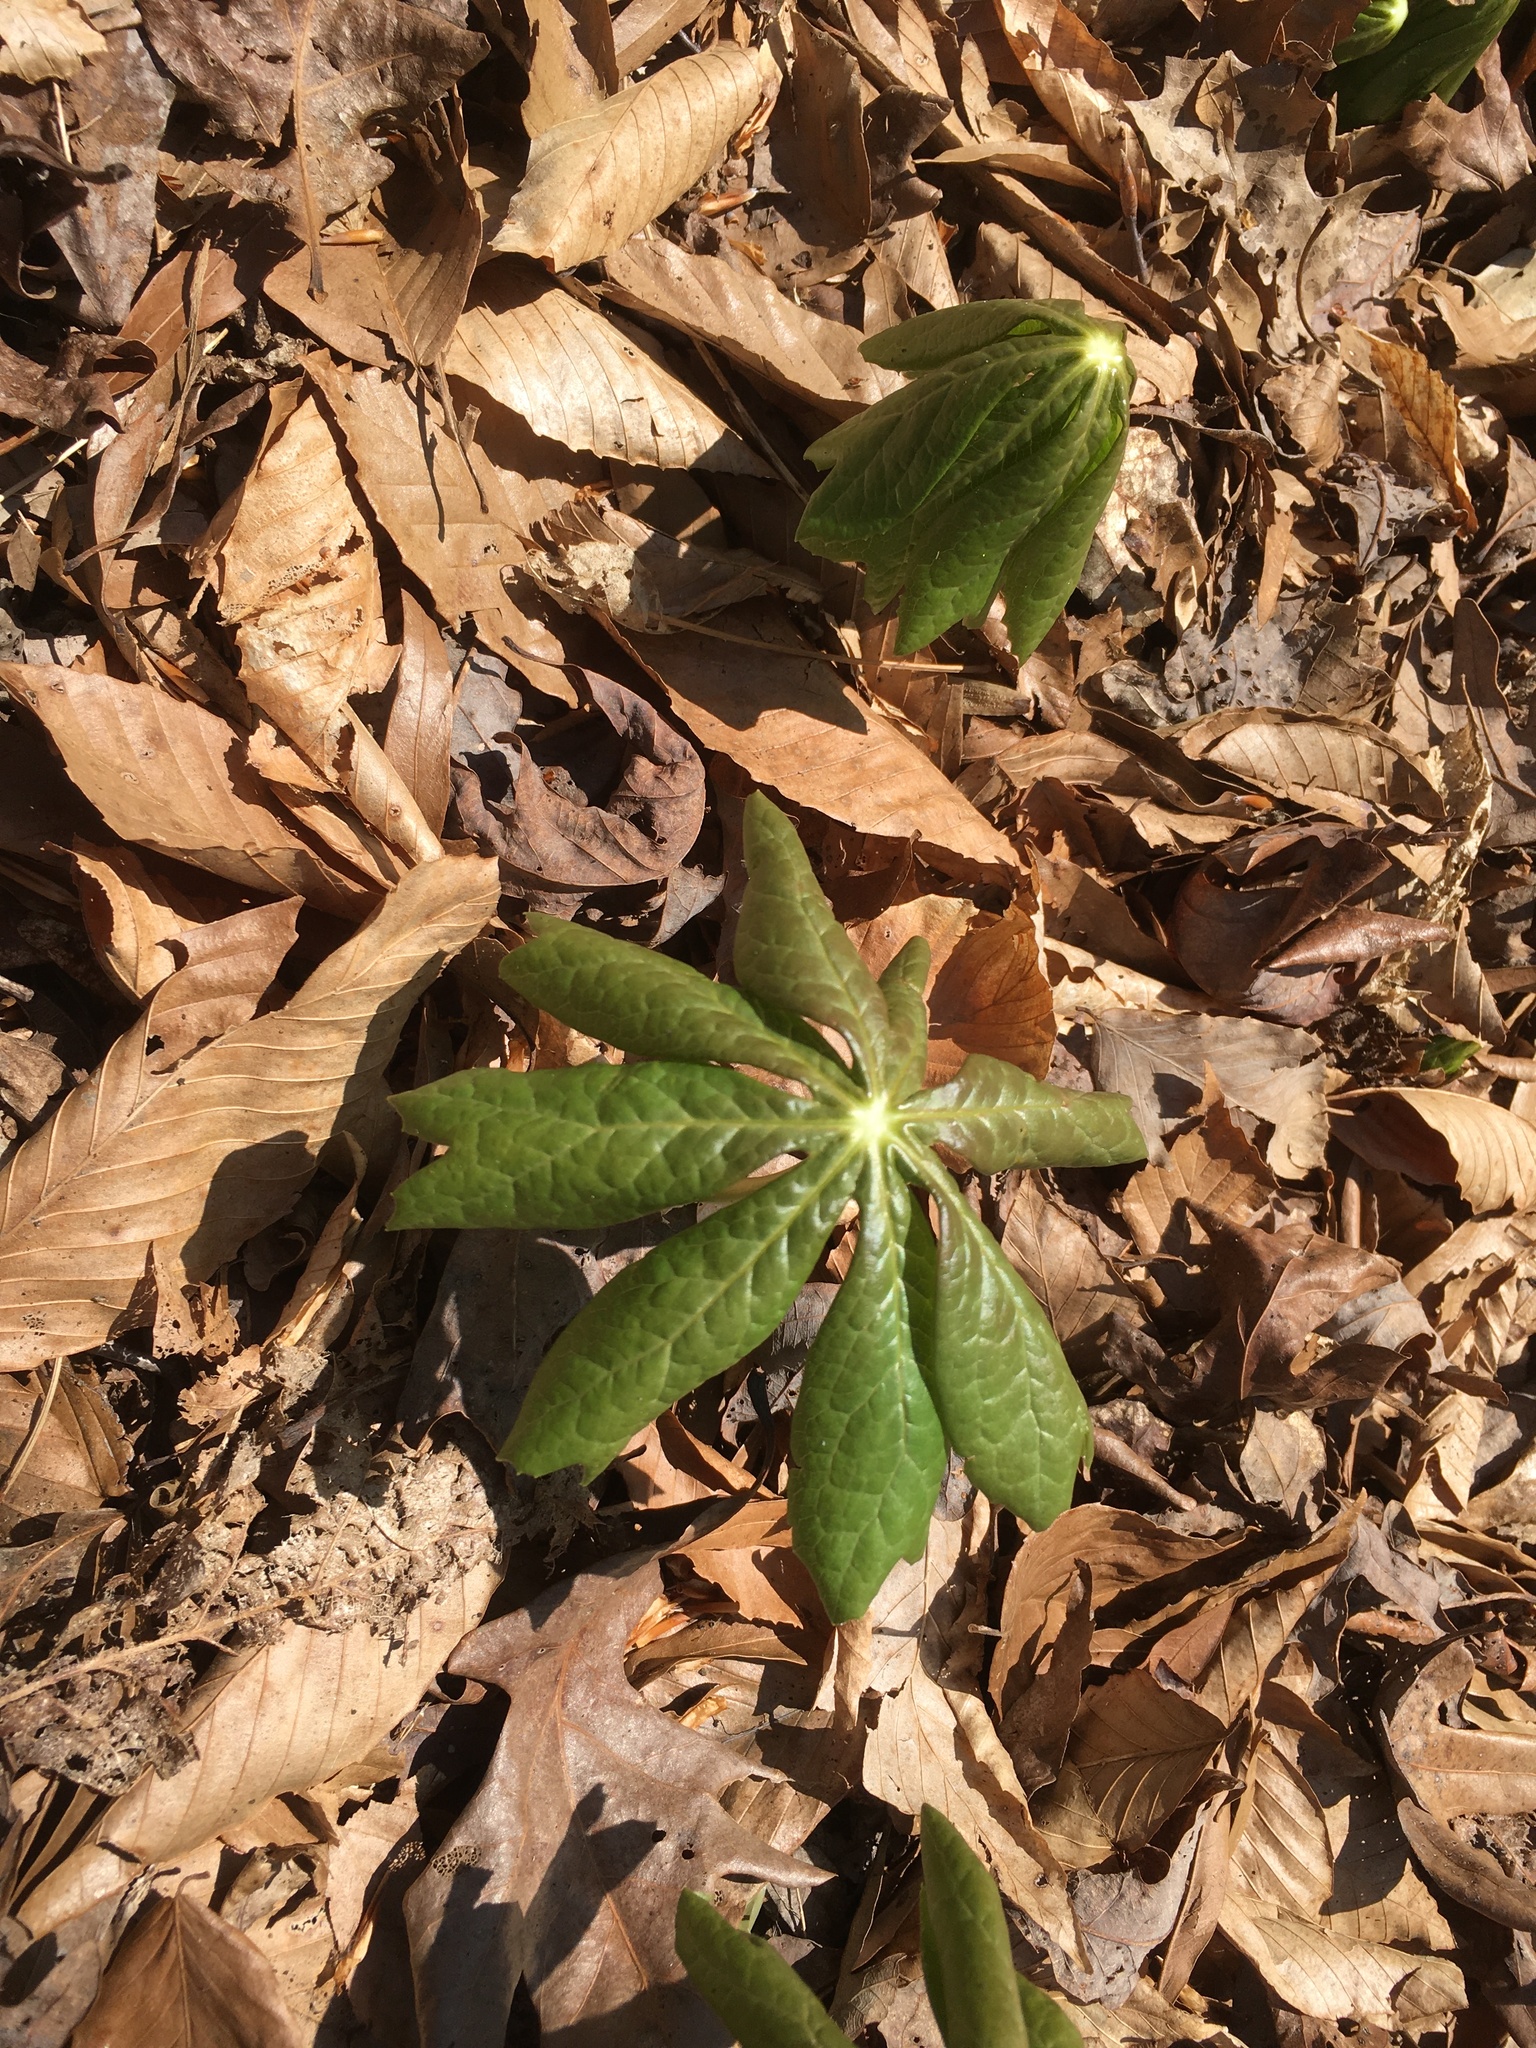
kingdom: Plantae
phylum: Tracheophyta
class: Magnoliopsida
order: Ranunculales
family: Berberidaceae
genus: Podophyllum
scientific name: Podophyllum peltatum
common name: Wild mandrake
